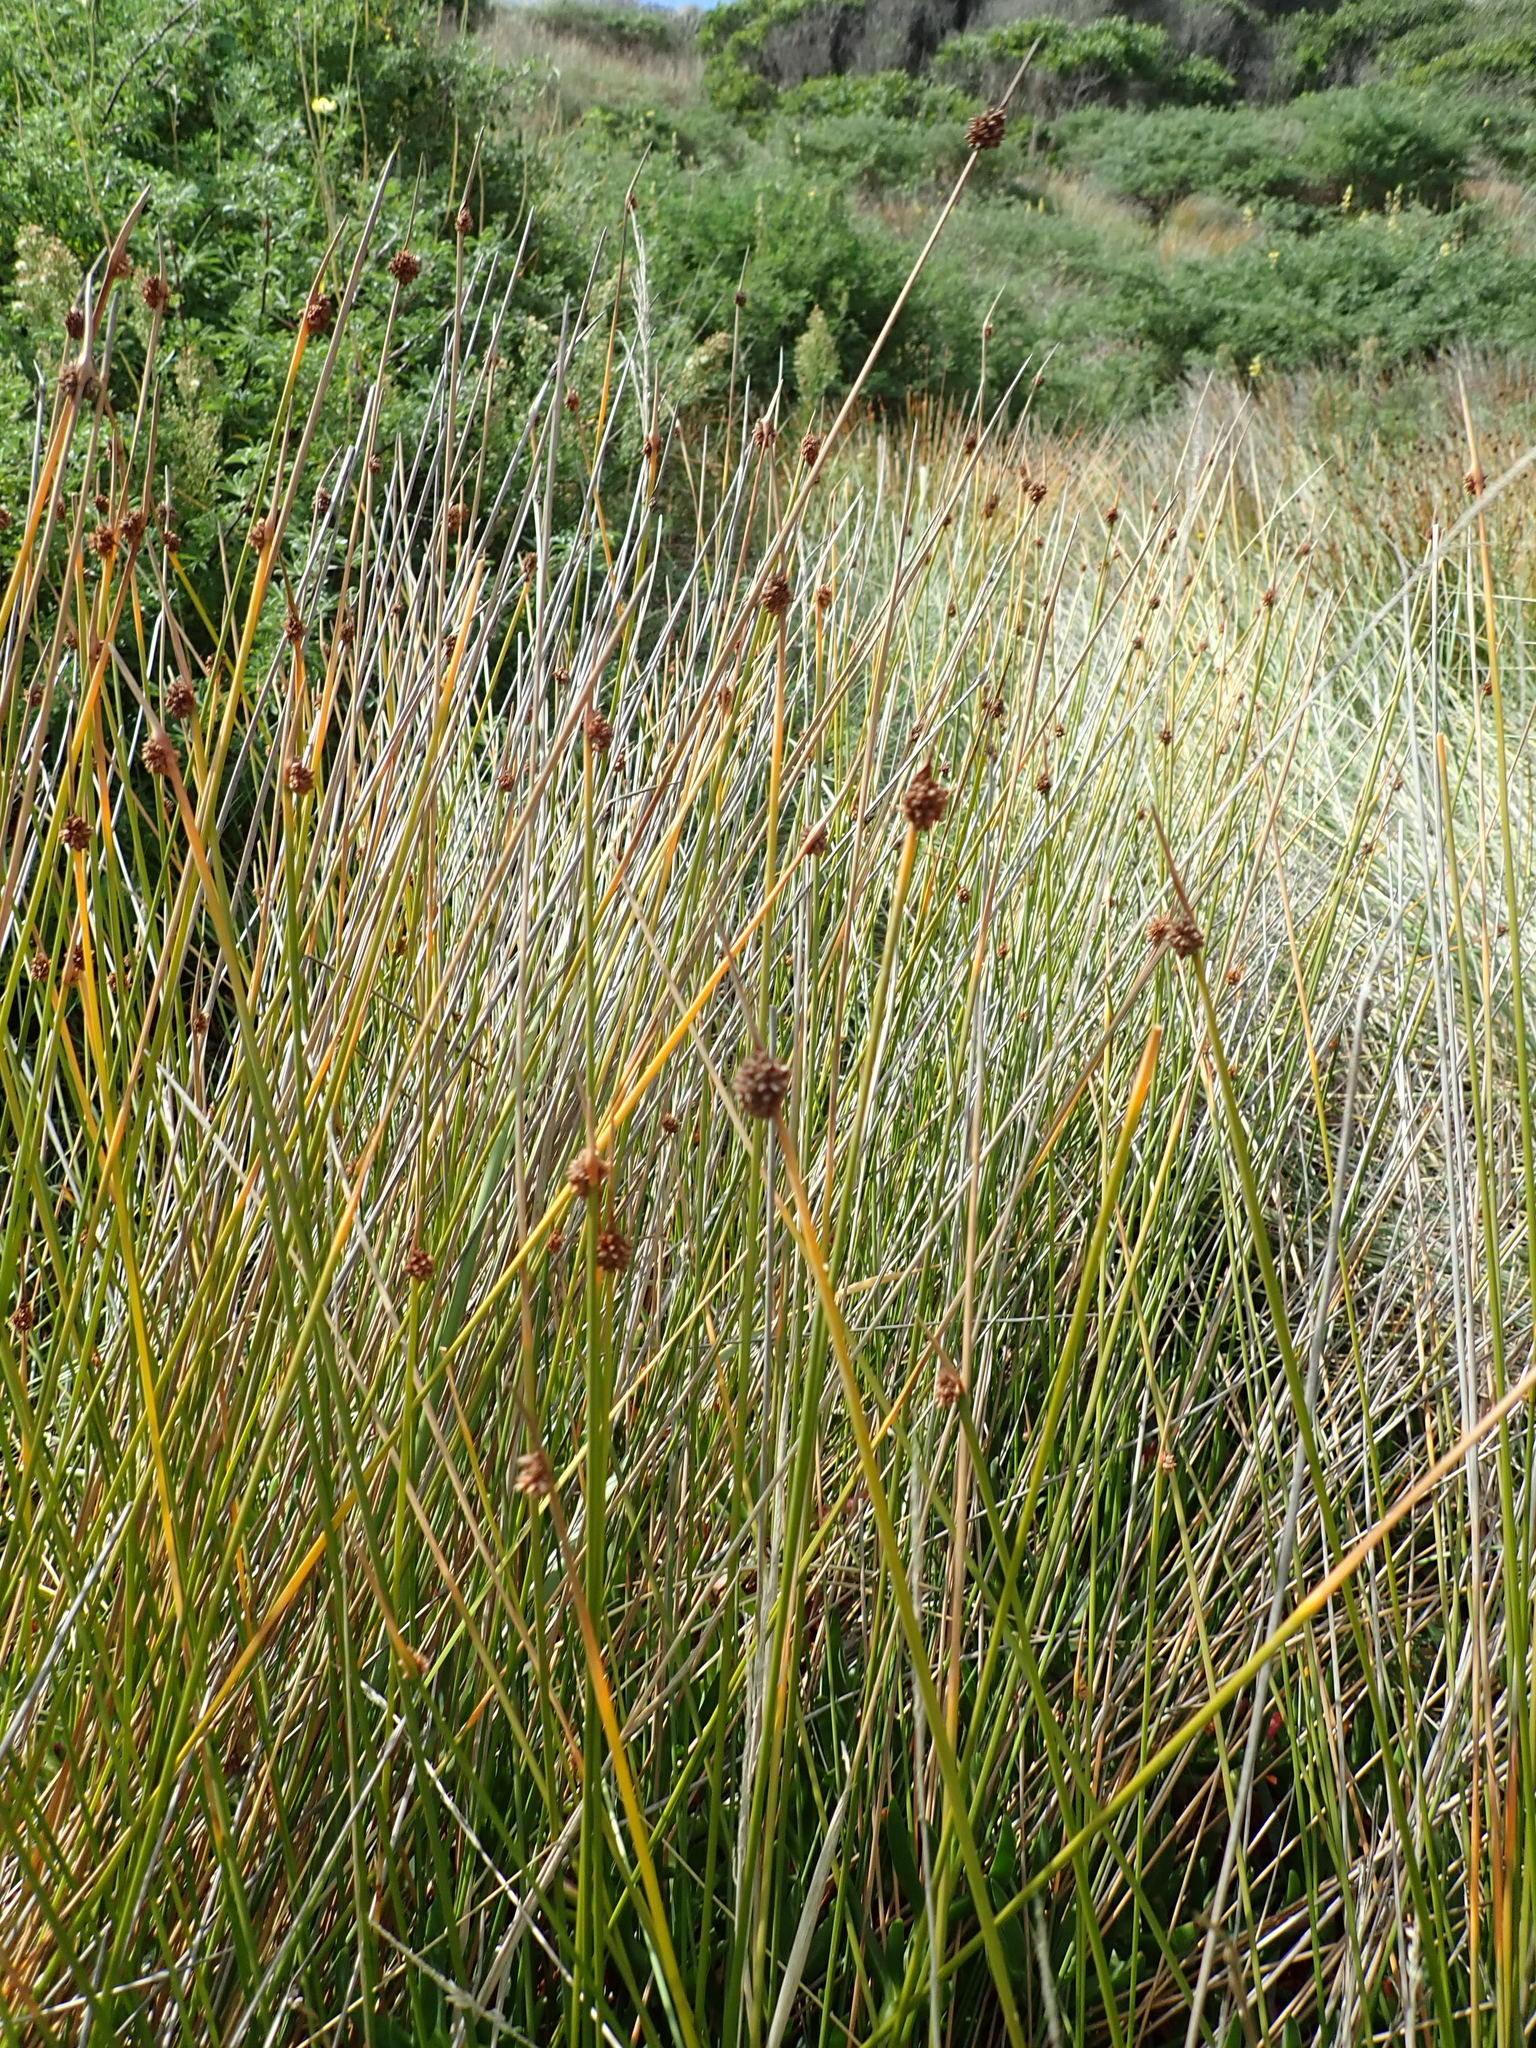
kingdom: Plantae
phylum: Tracheophyta
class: Liliopsida
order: Poales
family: Cyperaceae
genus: Ficinia
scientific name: Ficinia nodosa
